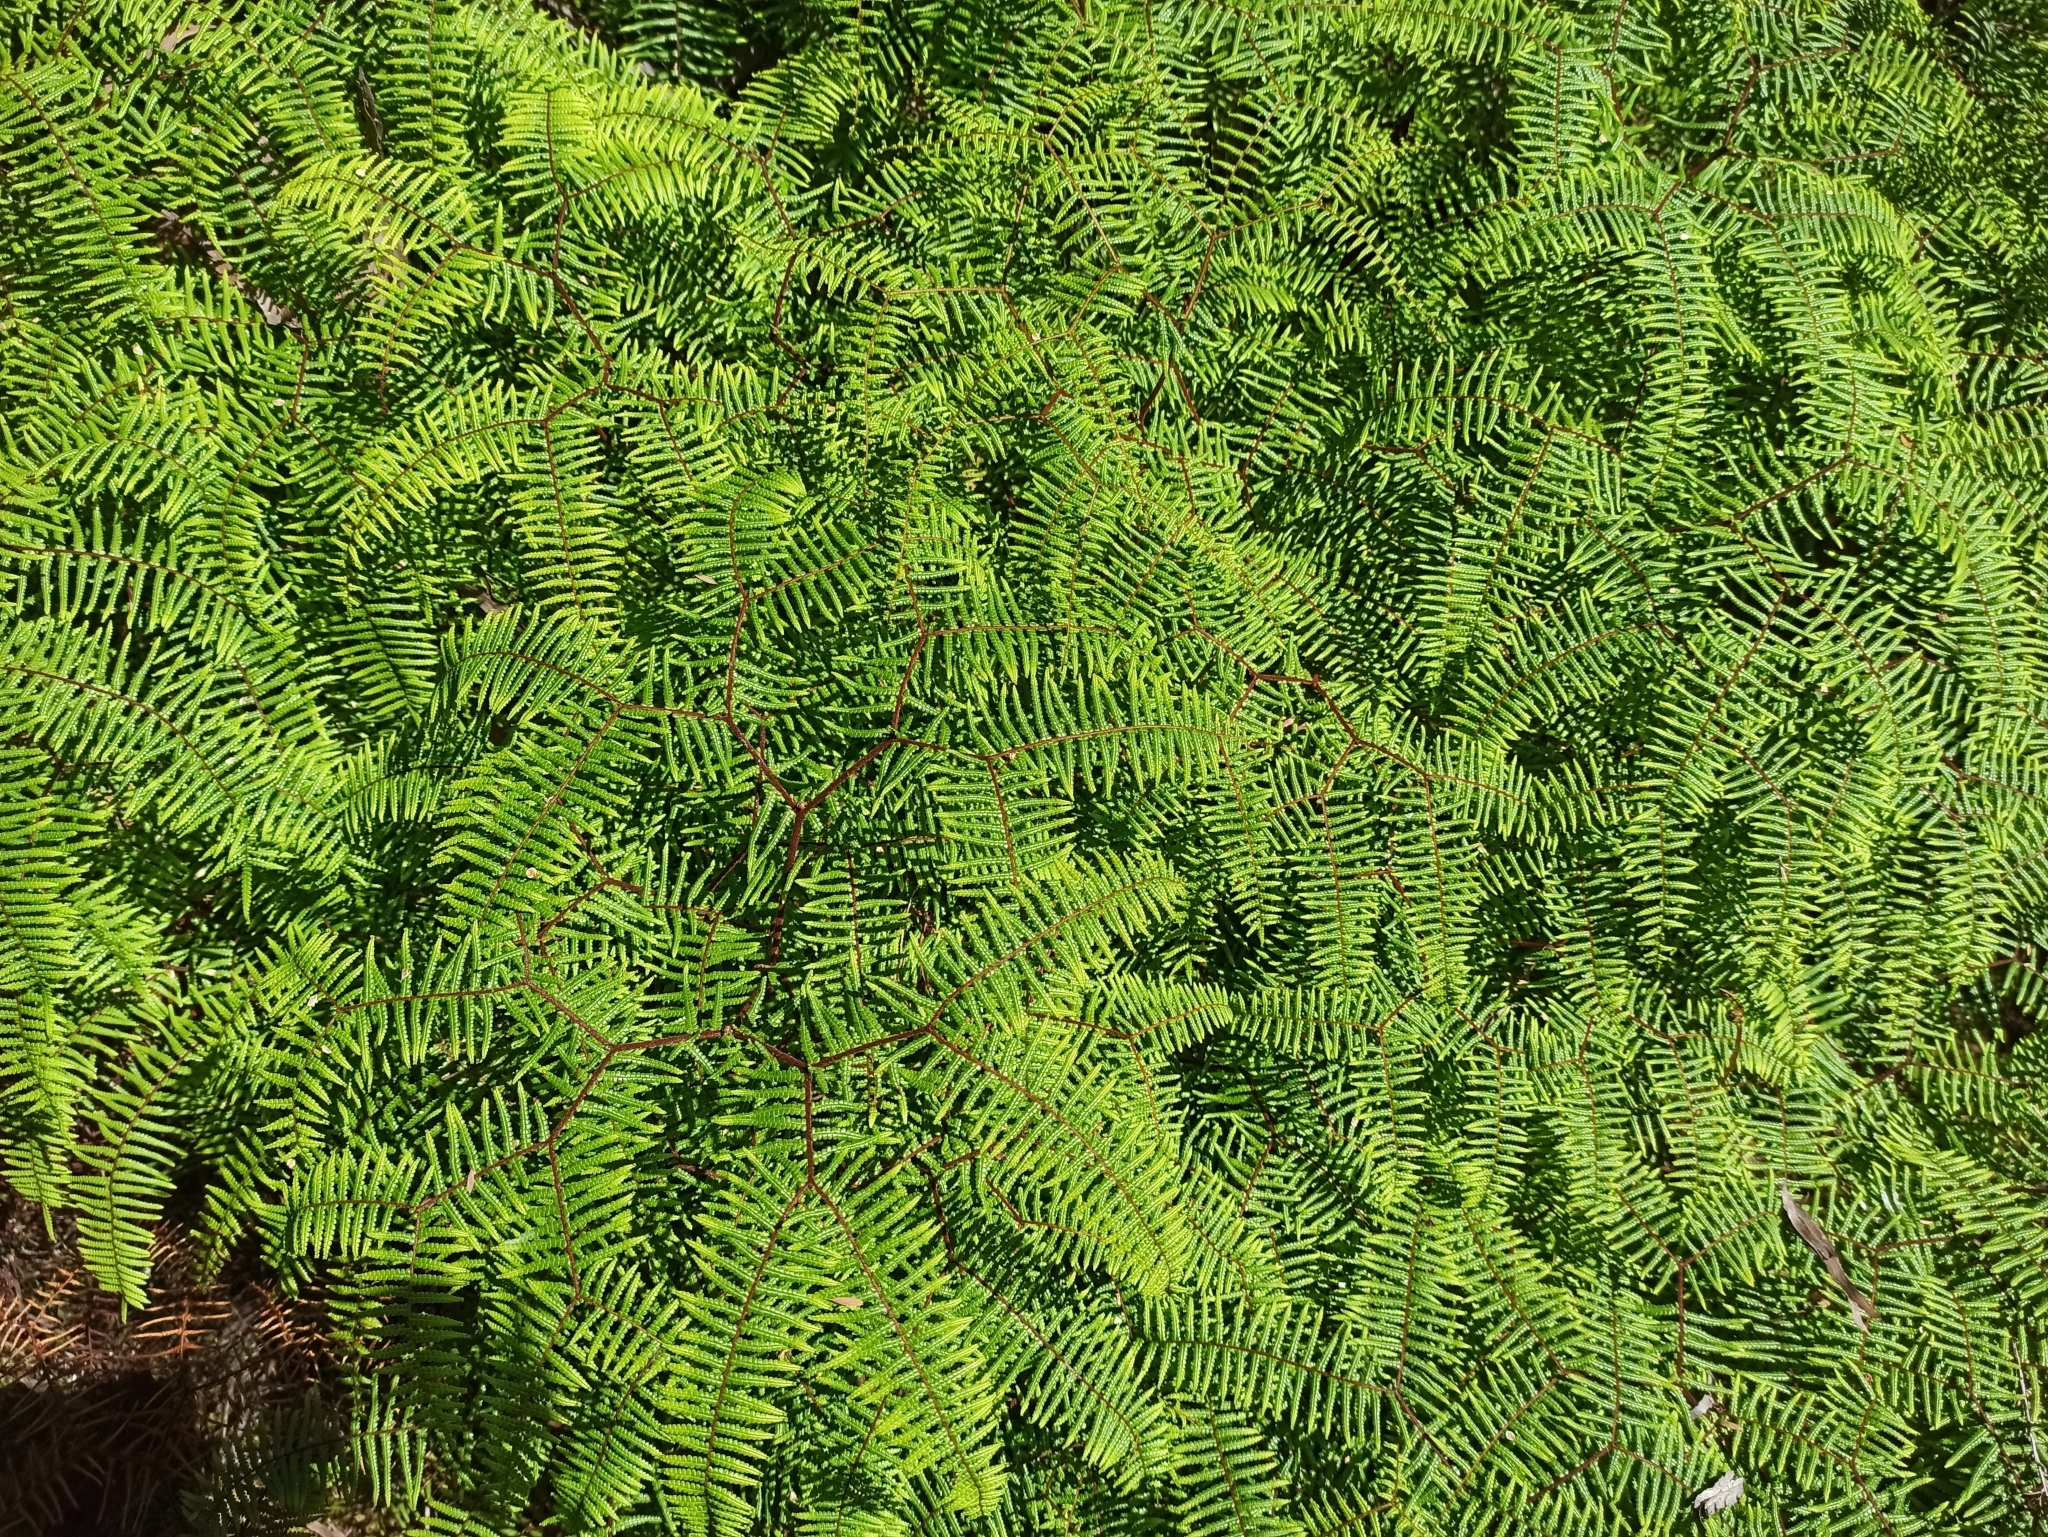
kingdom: Plantae
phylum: Tracheophyta
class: Polypodiopsida
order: Gleicheniales
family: Gleicheniaceae
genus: Gleichenia
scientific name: Gleichenia microphylla
